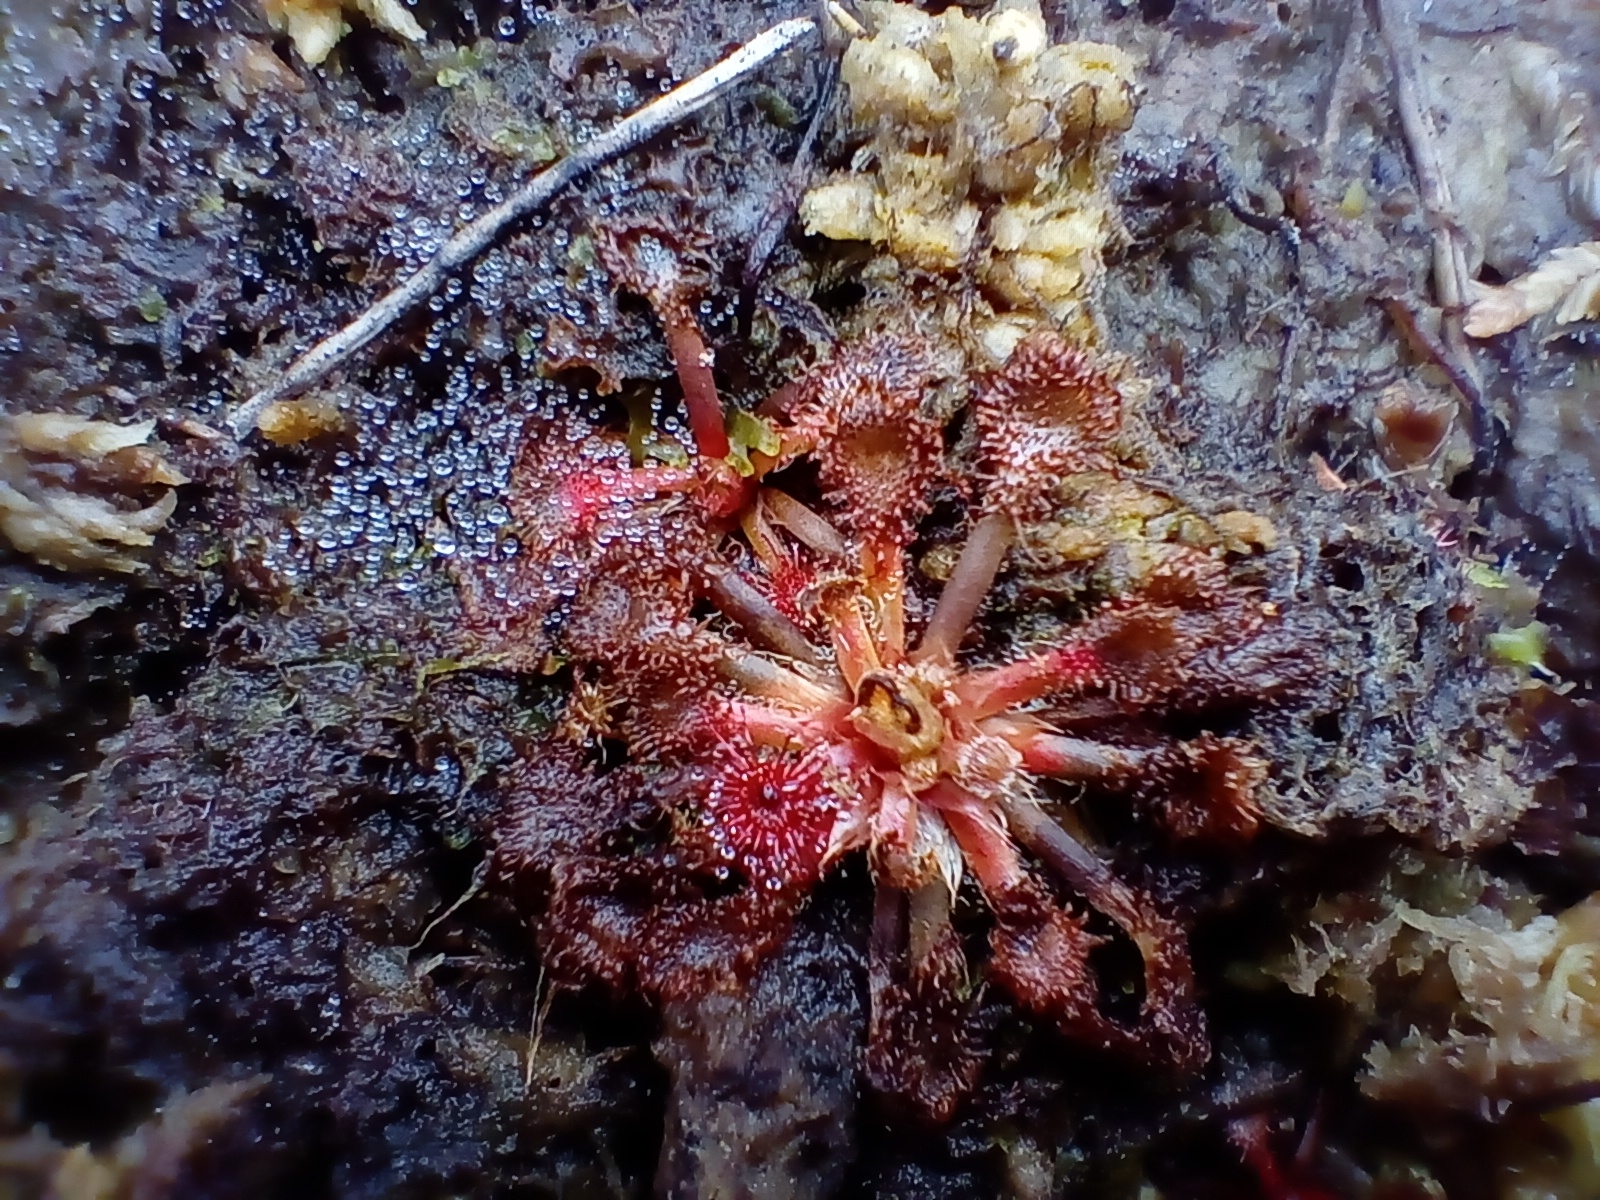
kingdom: Plantae
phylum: Tracheophyta
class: Magnoliopsida
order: Caryophyllales
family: Droseraceae
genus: Drosera
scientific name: Drosera spatulata
